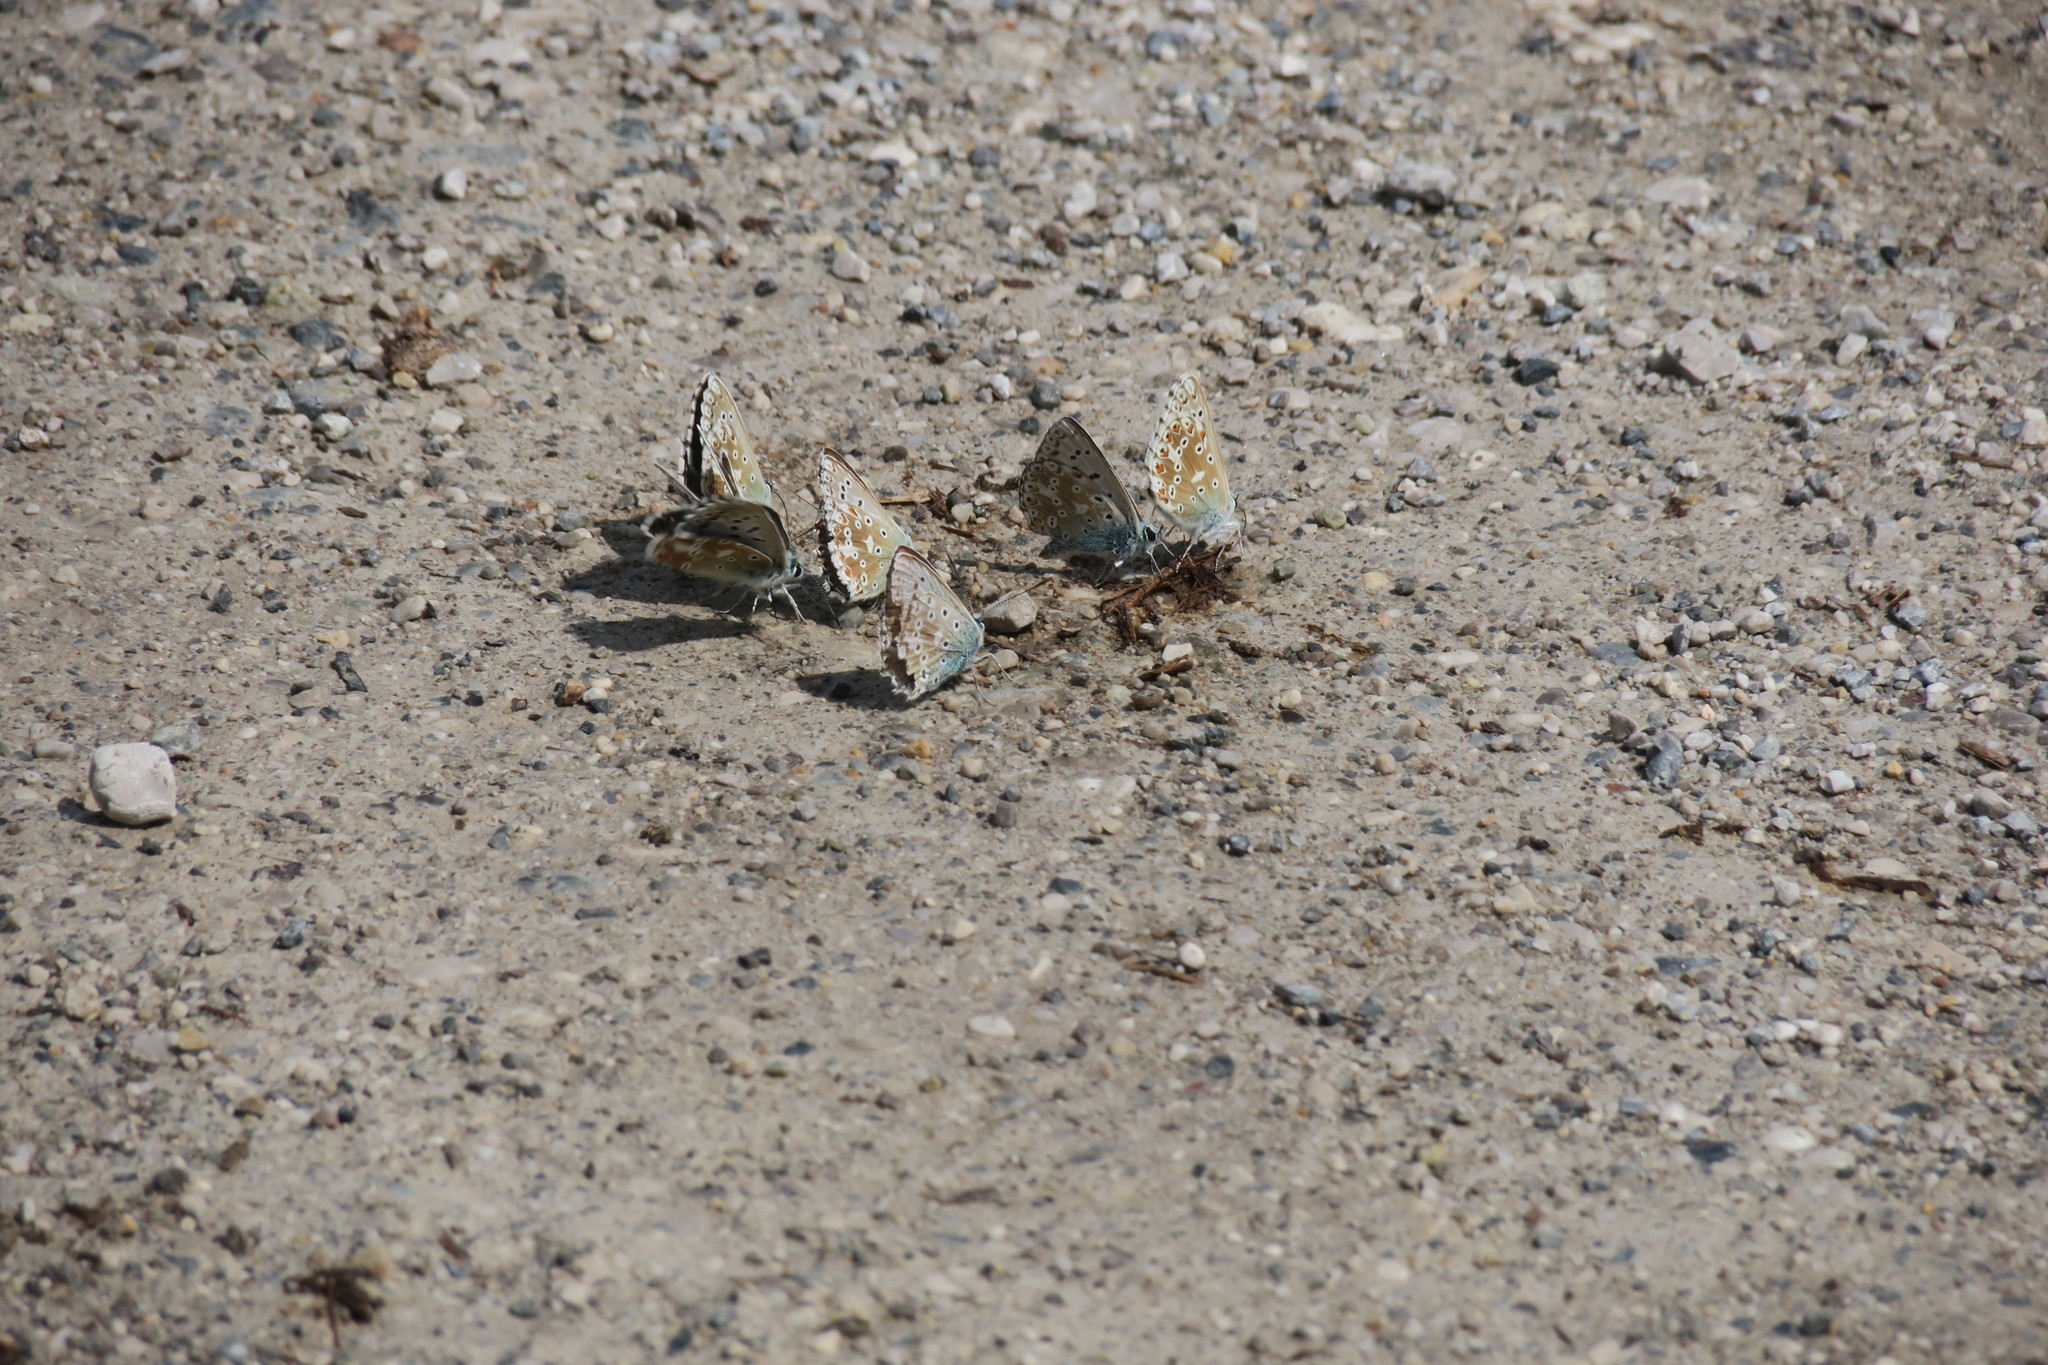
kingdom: Animalia
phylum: Arthropoda
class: Insecta
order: Lepidoptera
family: Lycaenidae
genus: Lysandra
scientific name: Lysandra coridon
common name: Chalkhill blue
